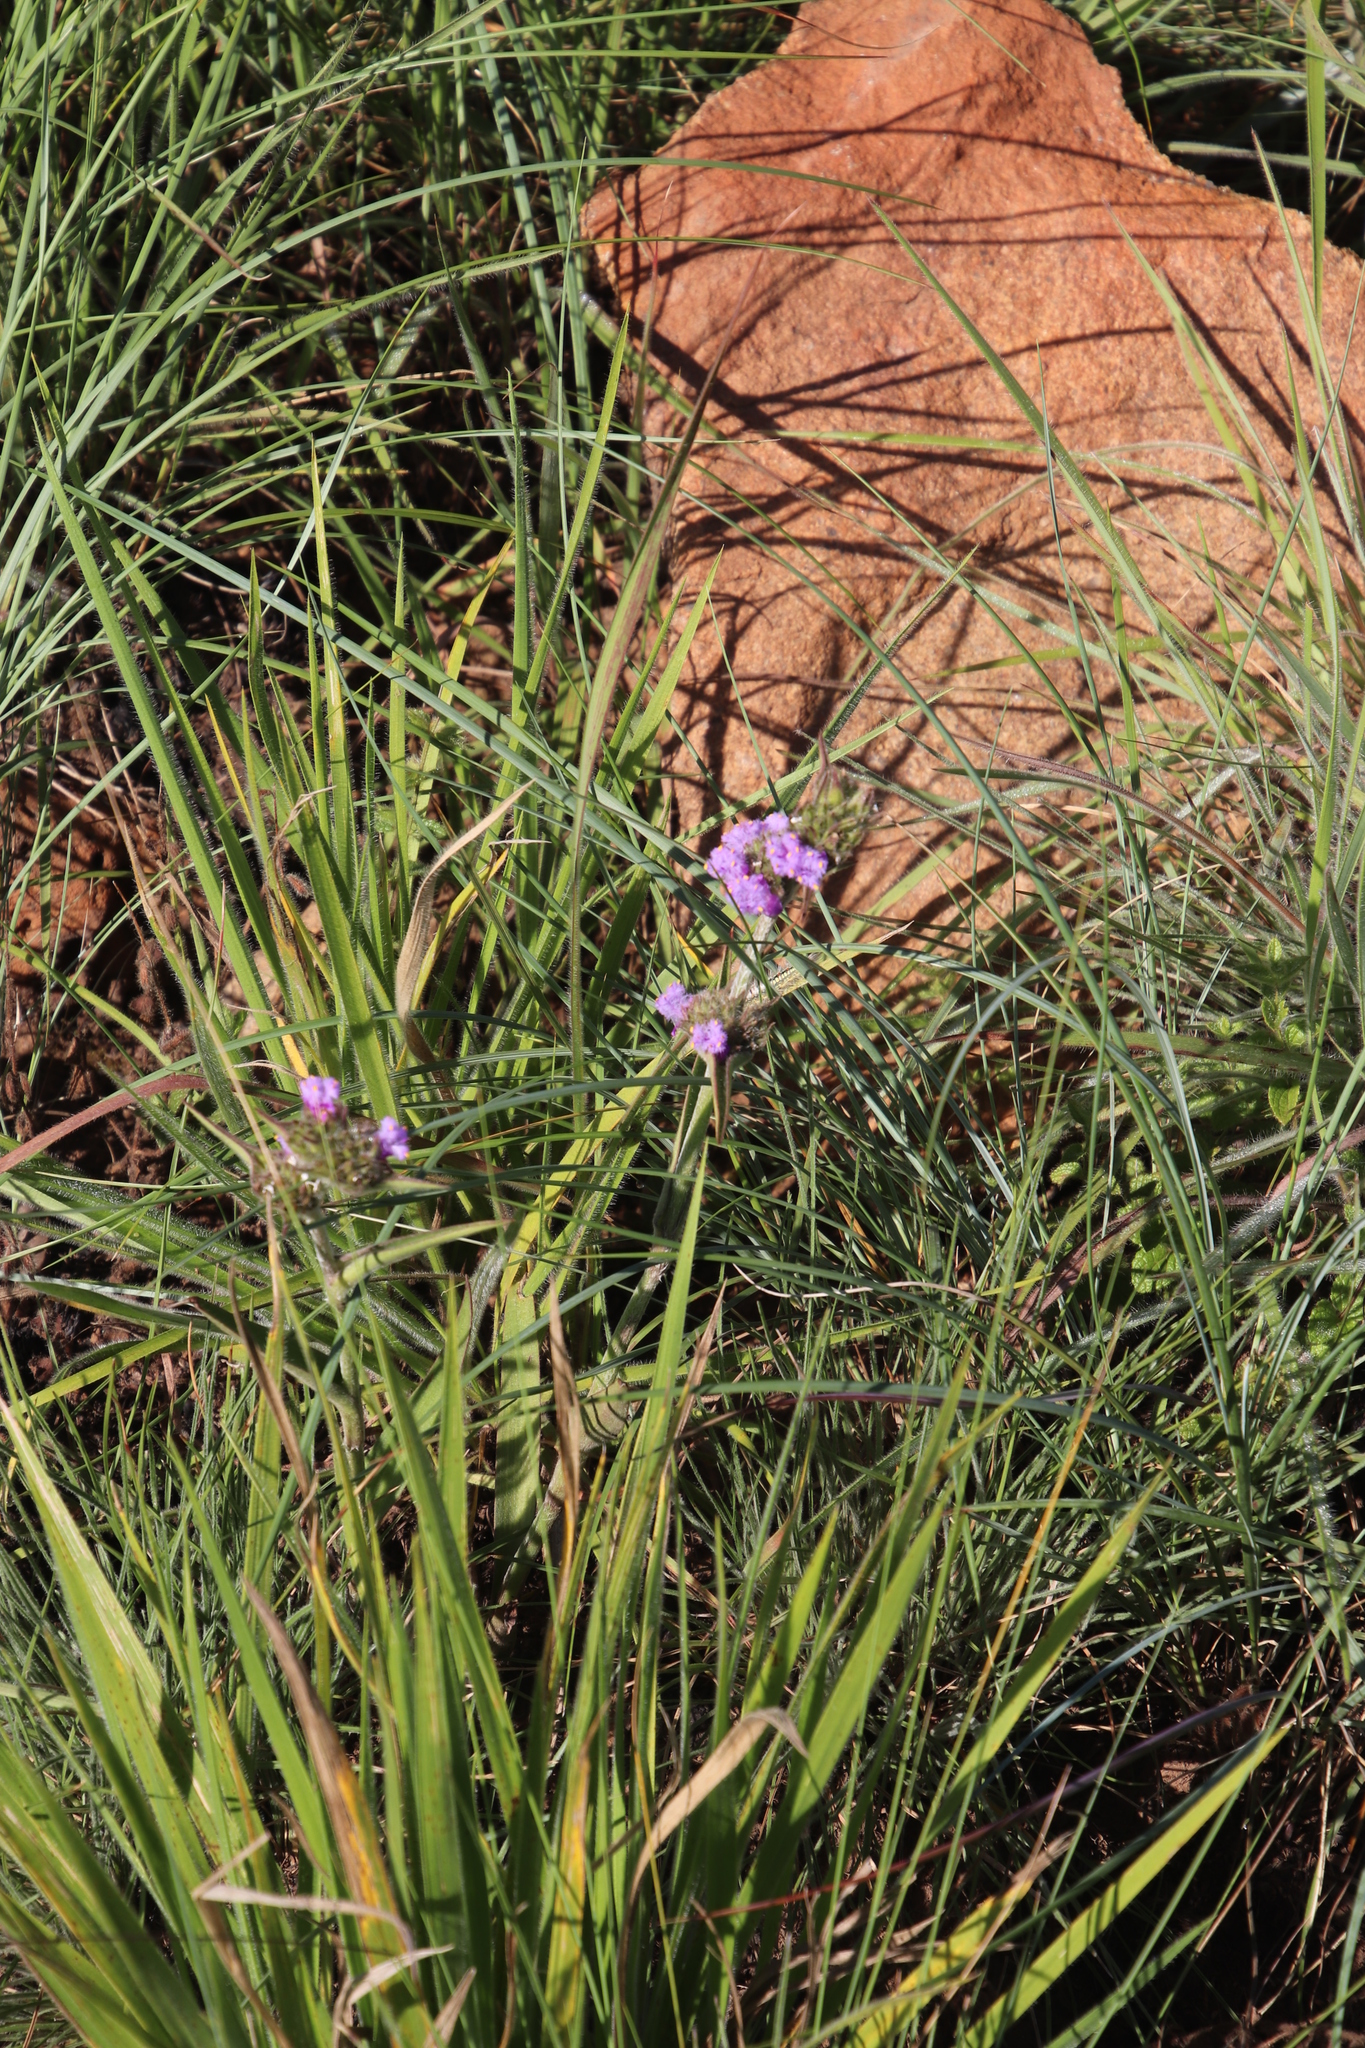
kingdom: Plantae
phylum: Tracheophyta
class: Liliopsida
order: Commelinales
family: Commelinaceae
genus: Cyanotis
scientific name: Cyanotis speciosa
